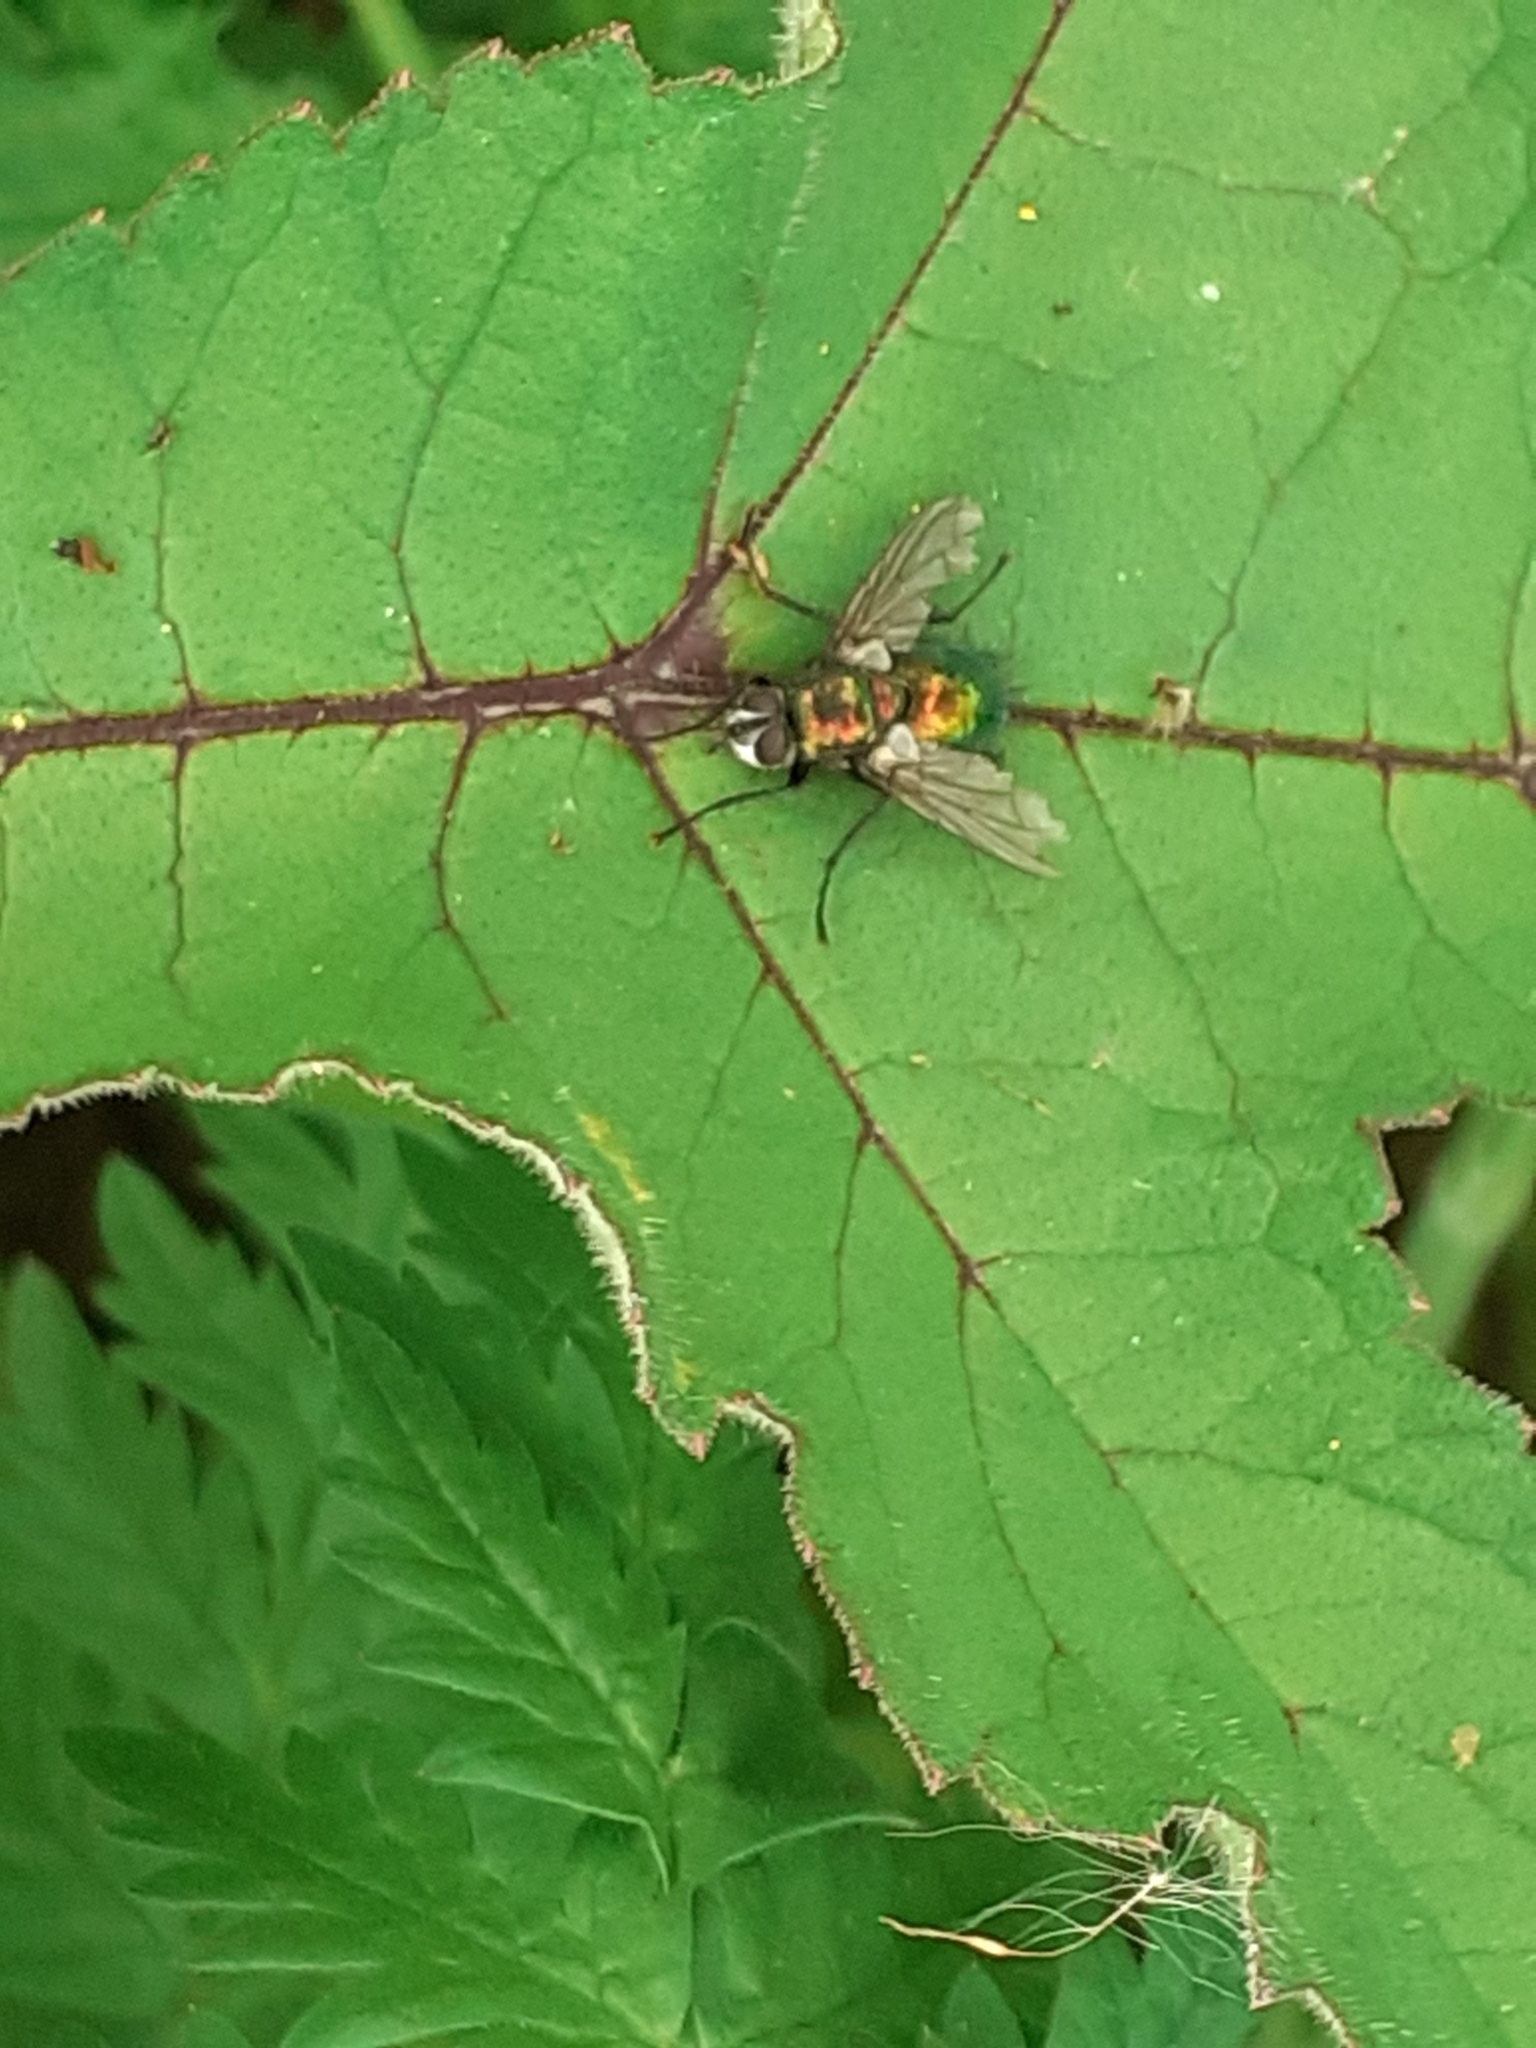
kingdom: Animalia
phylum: Arthropoda
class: Insecta
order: Diptera
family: Tachinidae
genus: Gymnocheta
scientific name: Gymnocheta viridis
